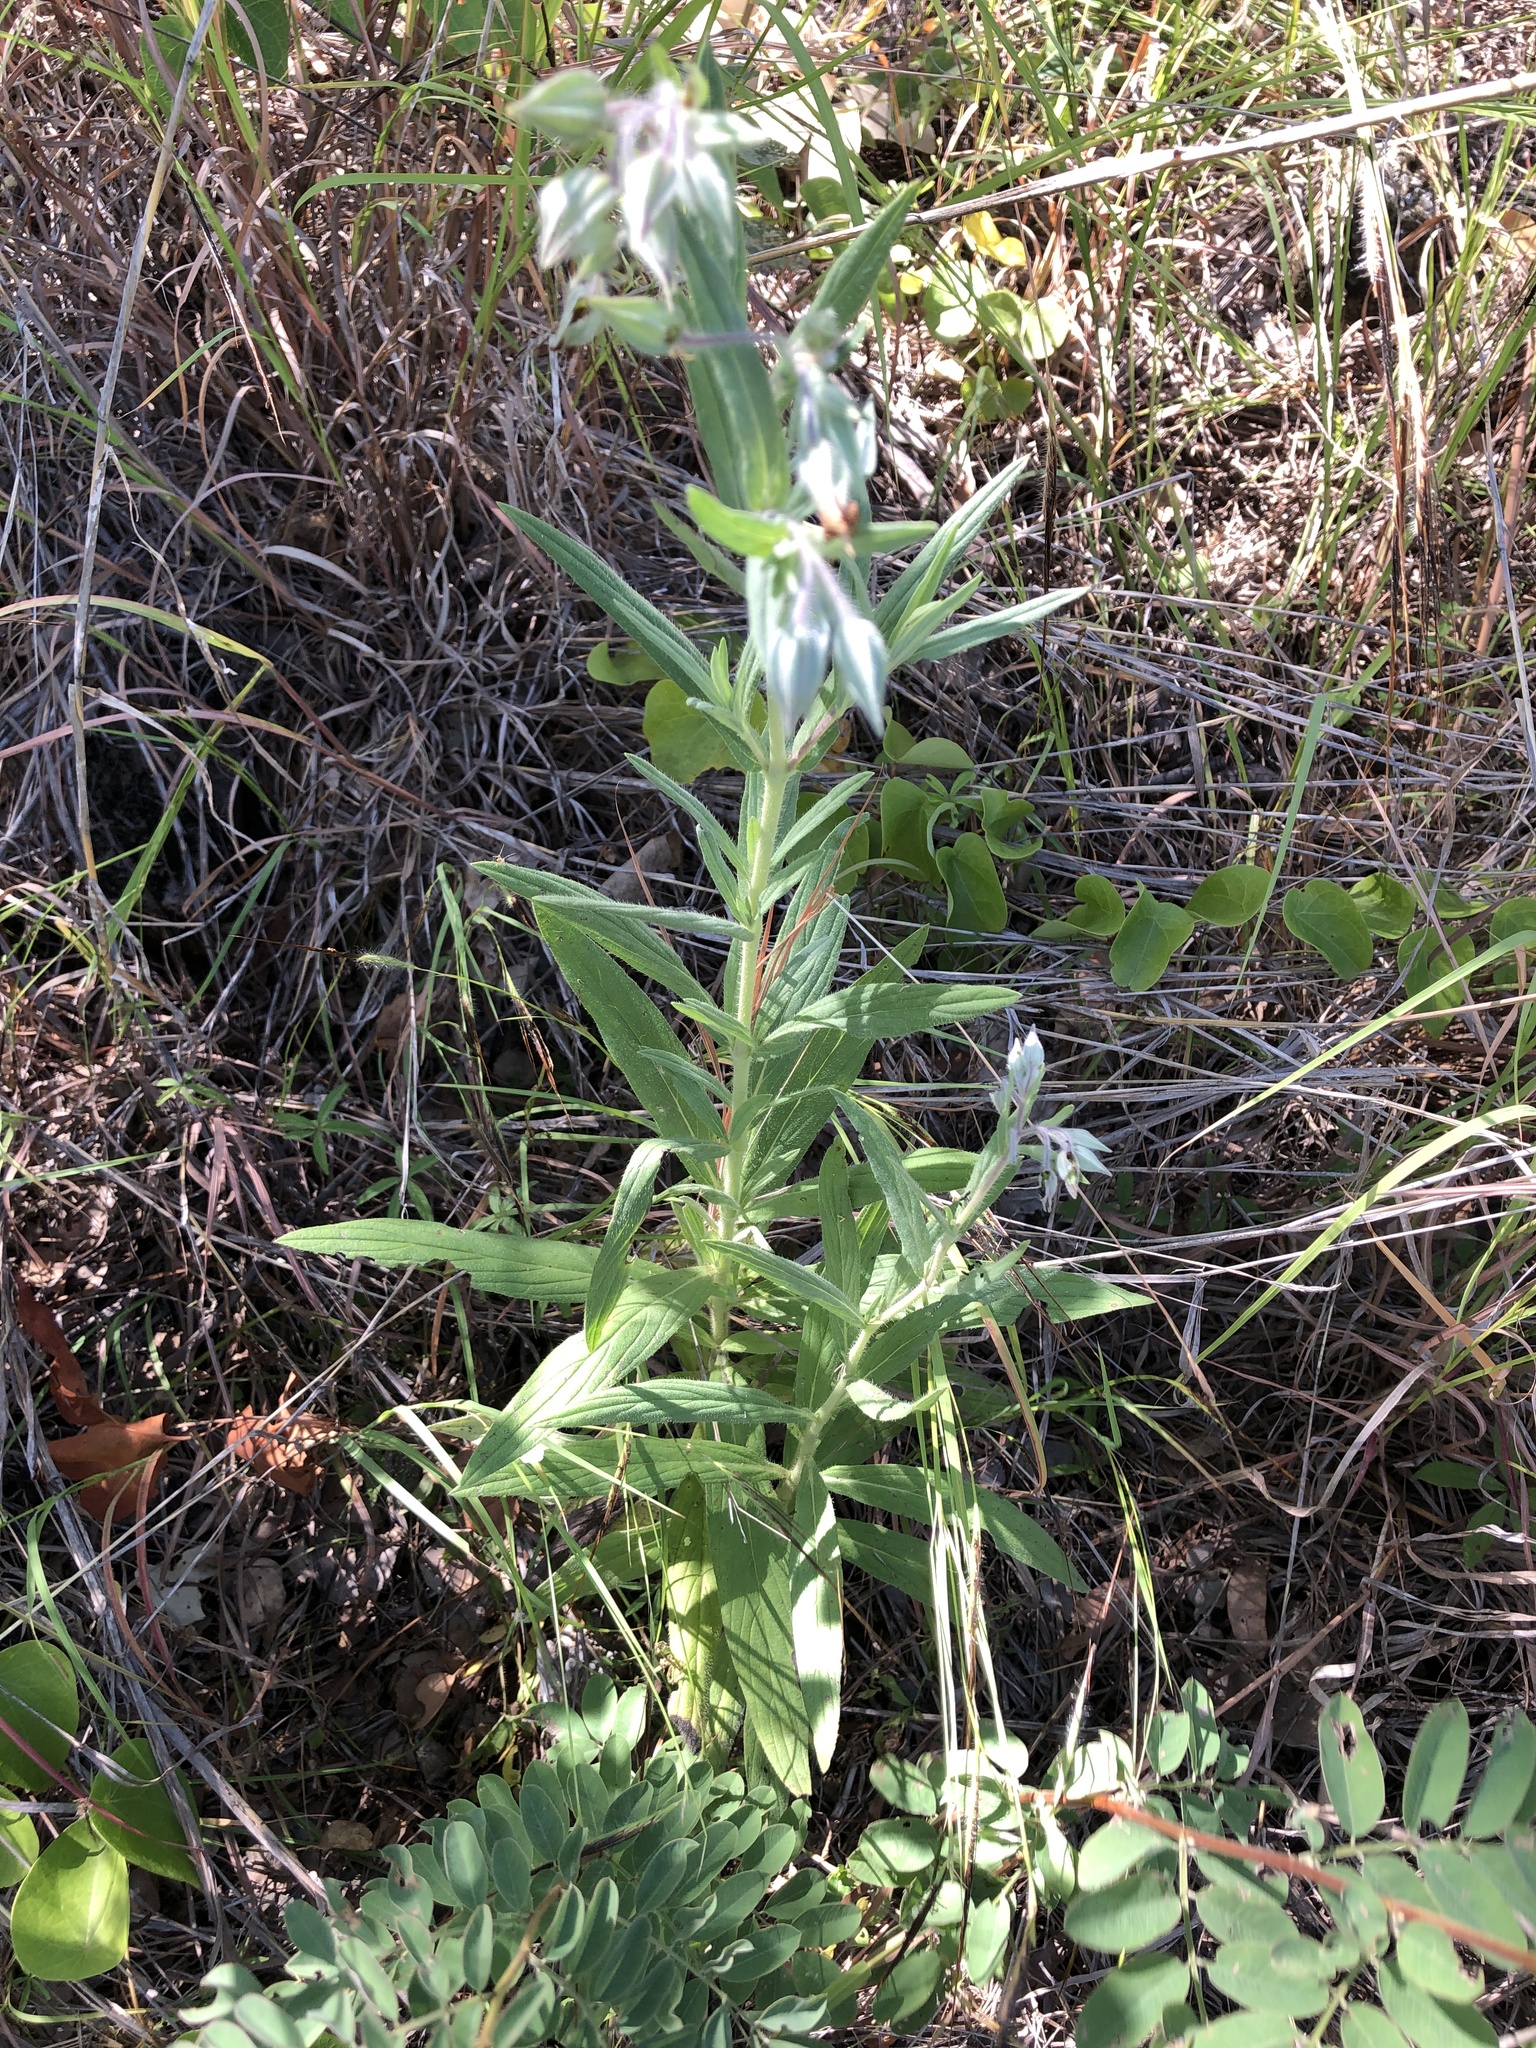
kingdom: Plantae
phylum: Tracheophyta
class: Magnoliopsida
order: Boraginales
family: Boraginaceae
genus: Trichodesma
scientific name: Trichodesma zeylanicum
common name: Camelbush
